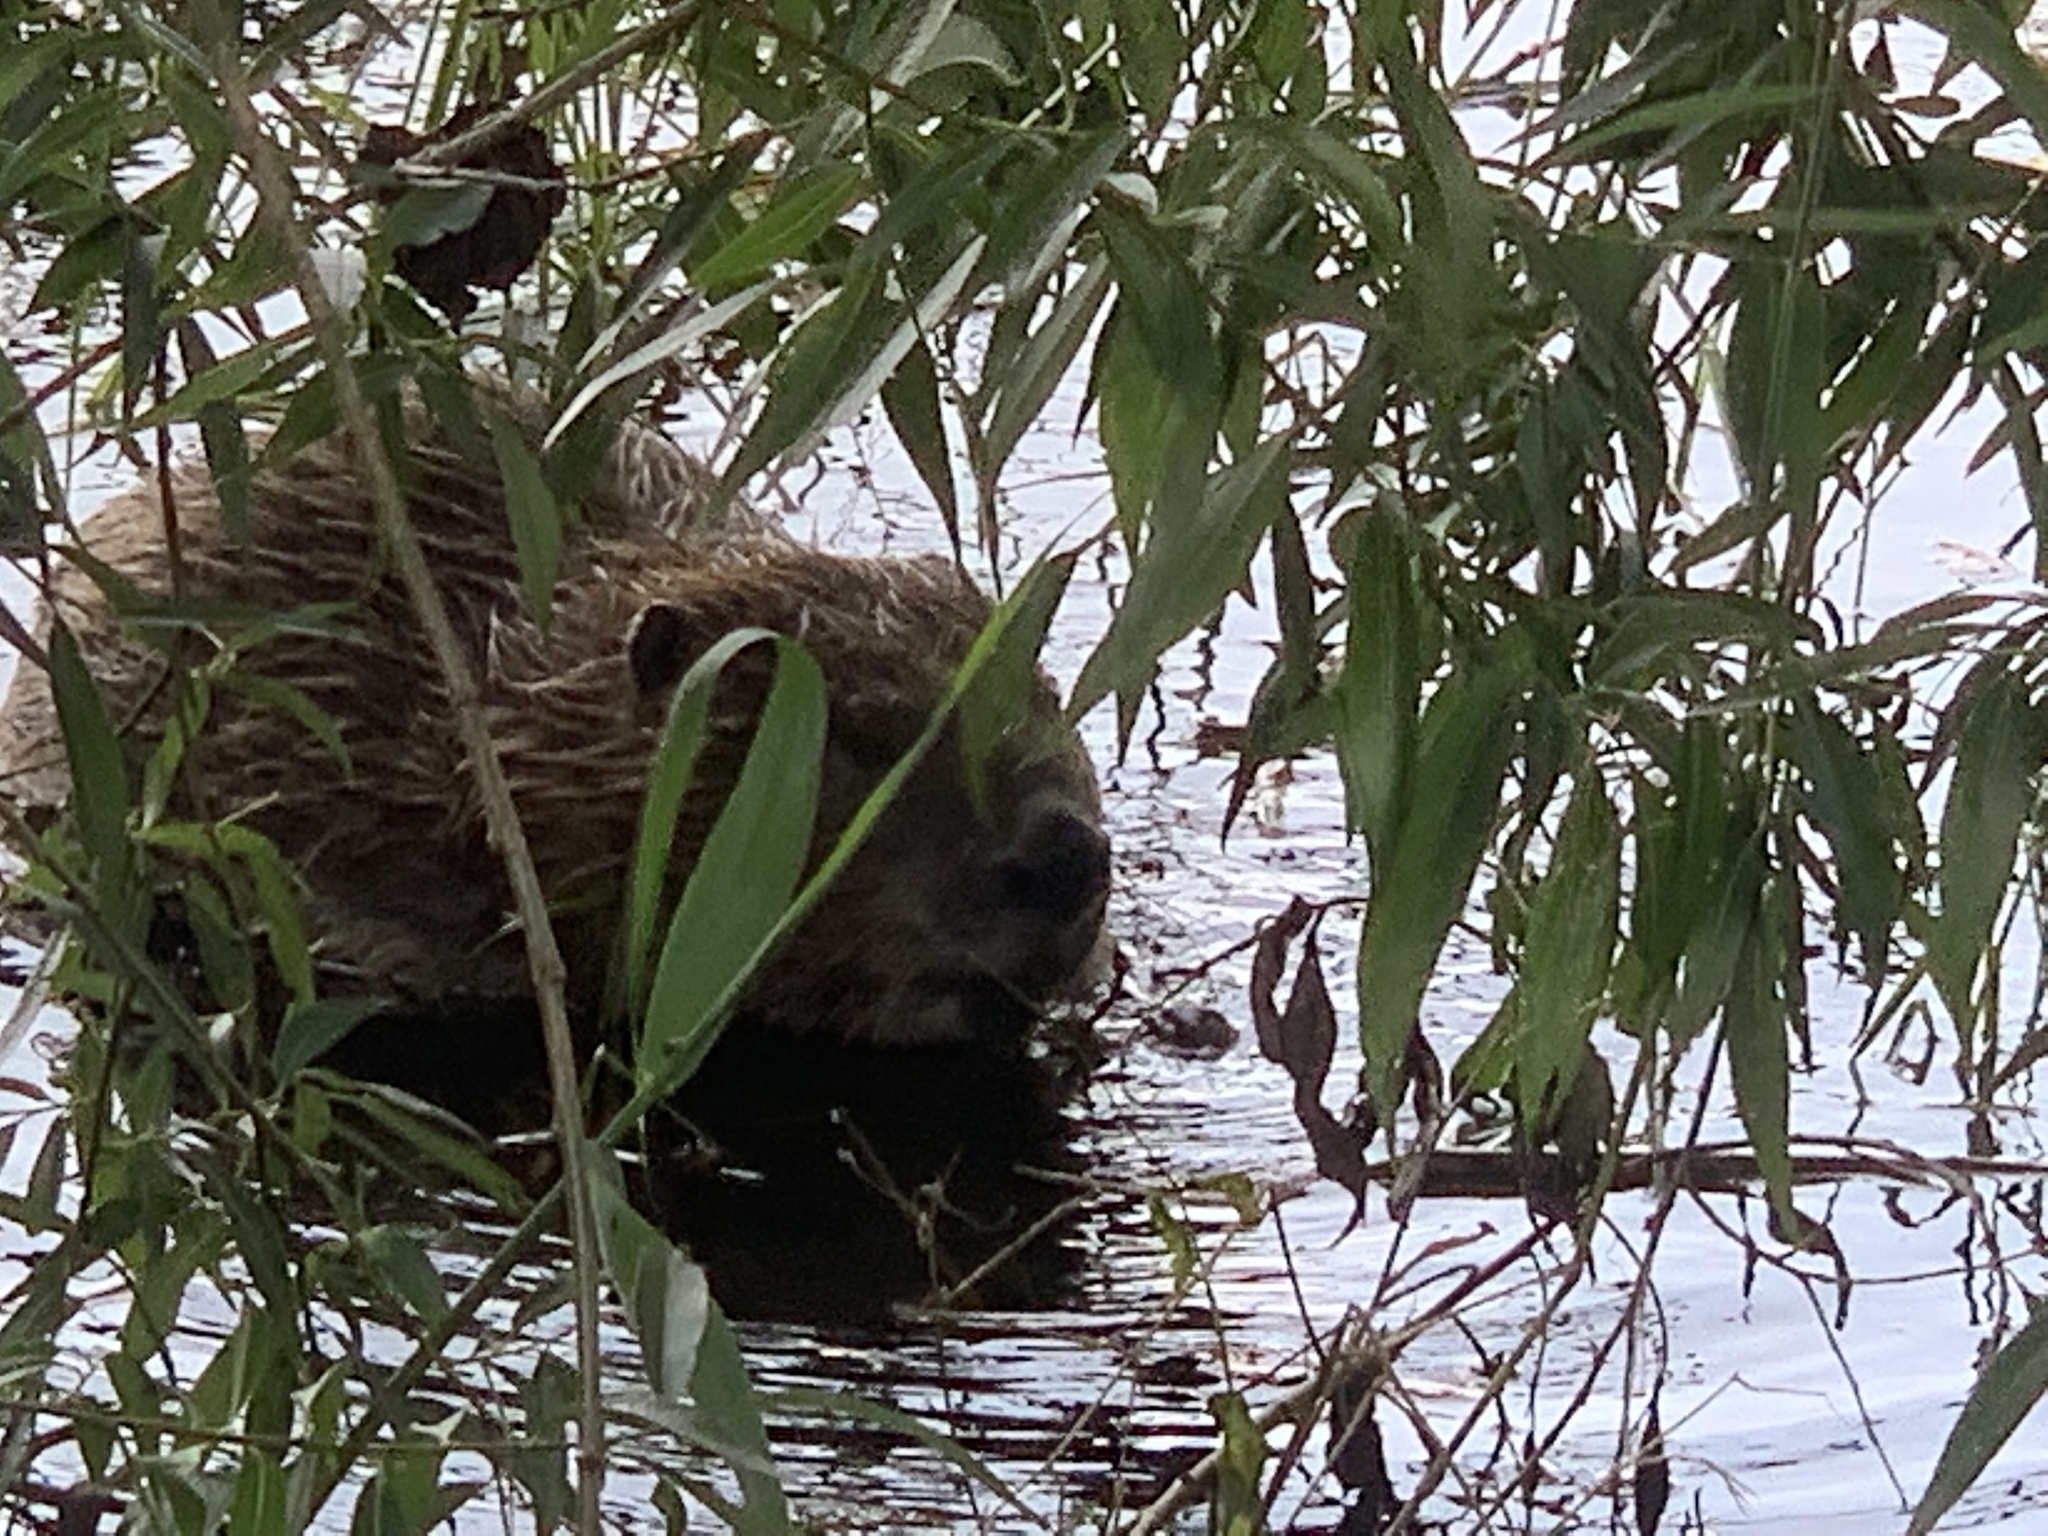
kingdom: Animalia
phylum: Chordata
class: Mammalia
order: Rodentia
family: Castoridae
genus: Castor
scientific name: Castor fiber
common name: Eurasian beaver
